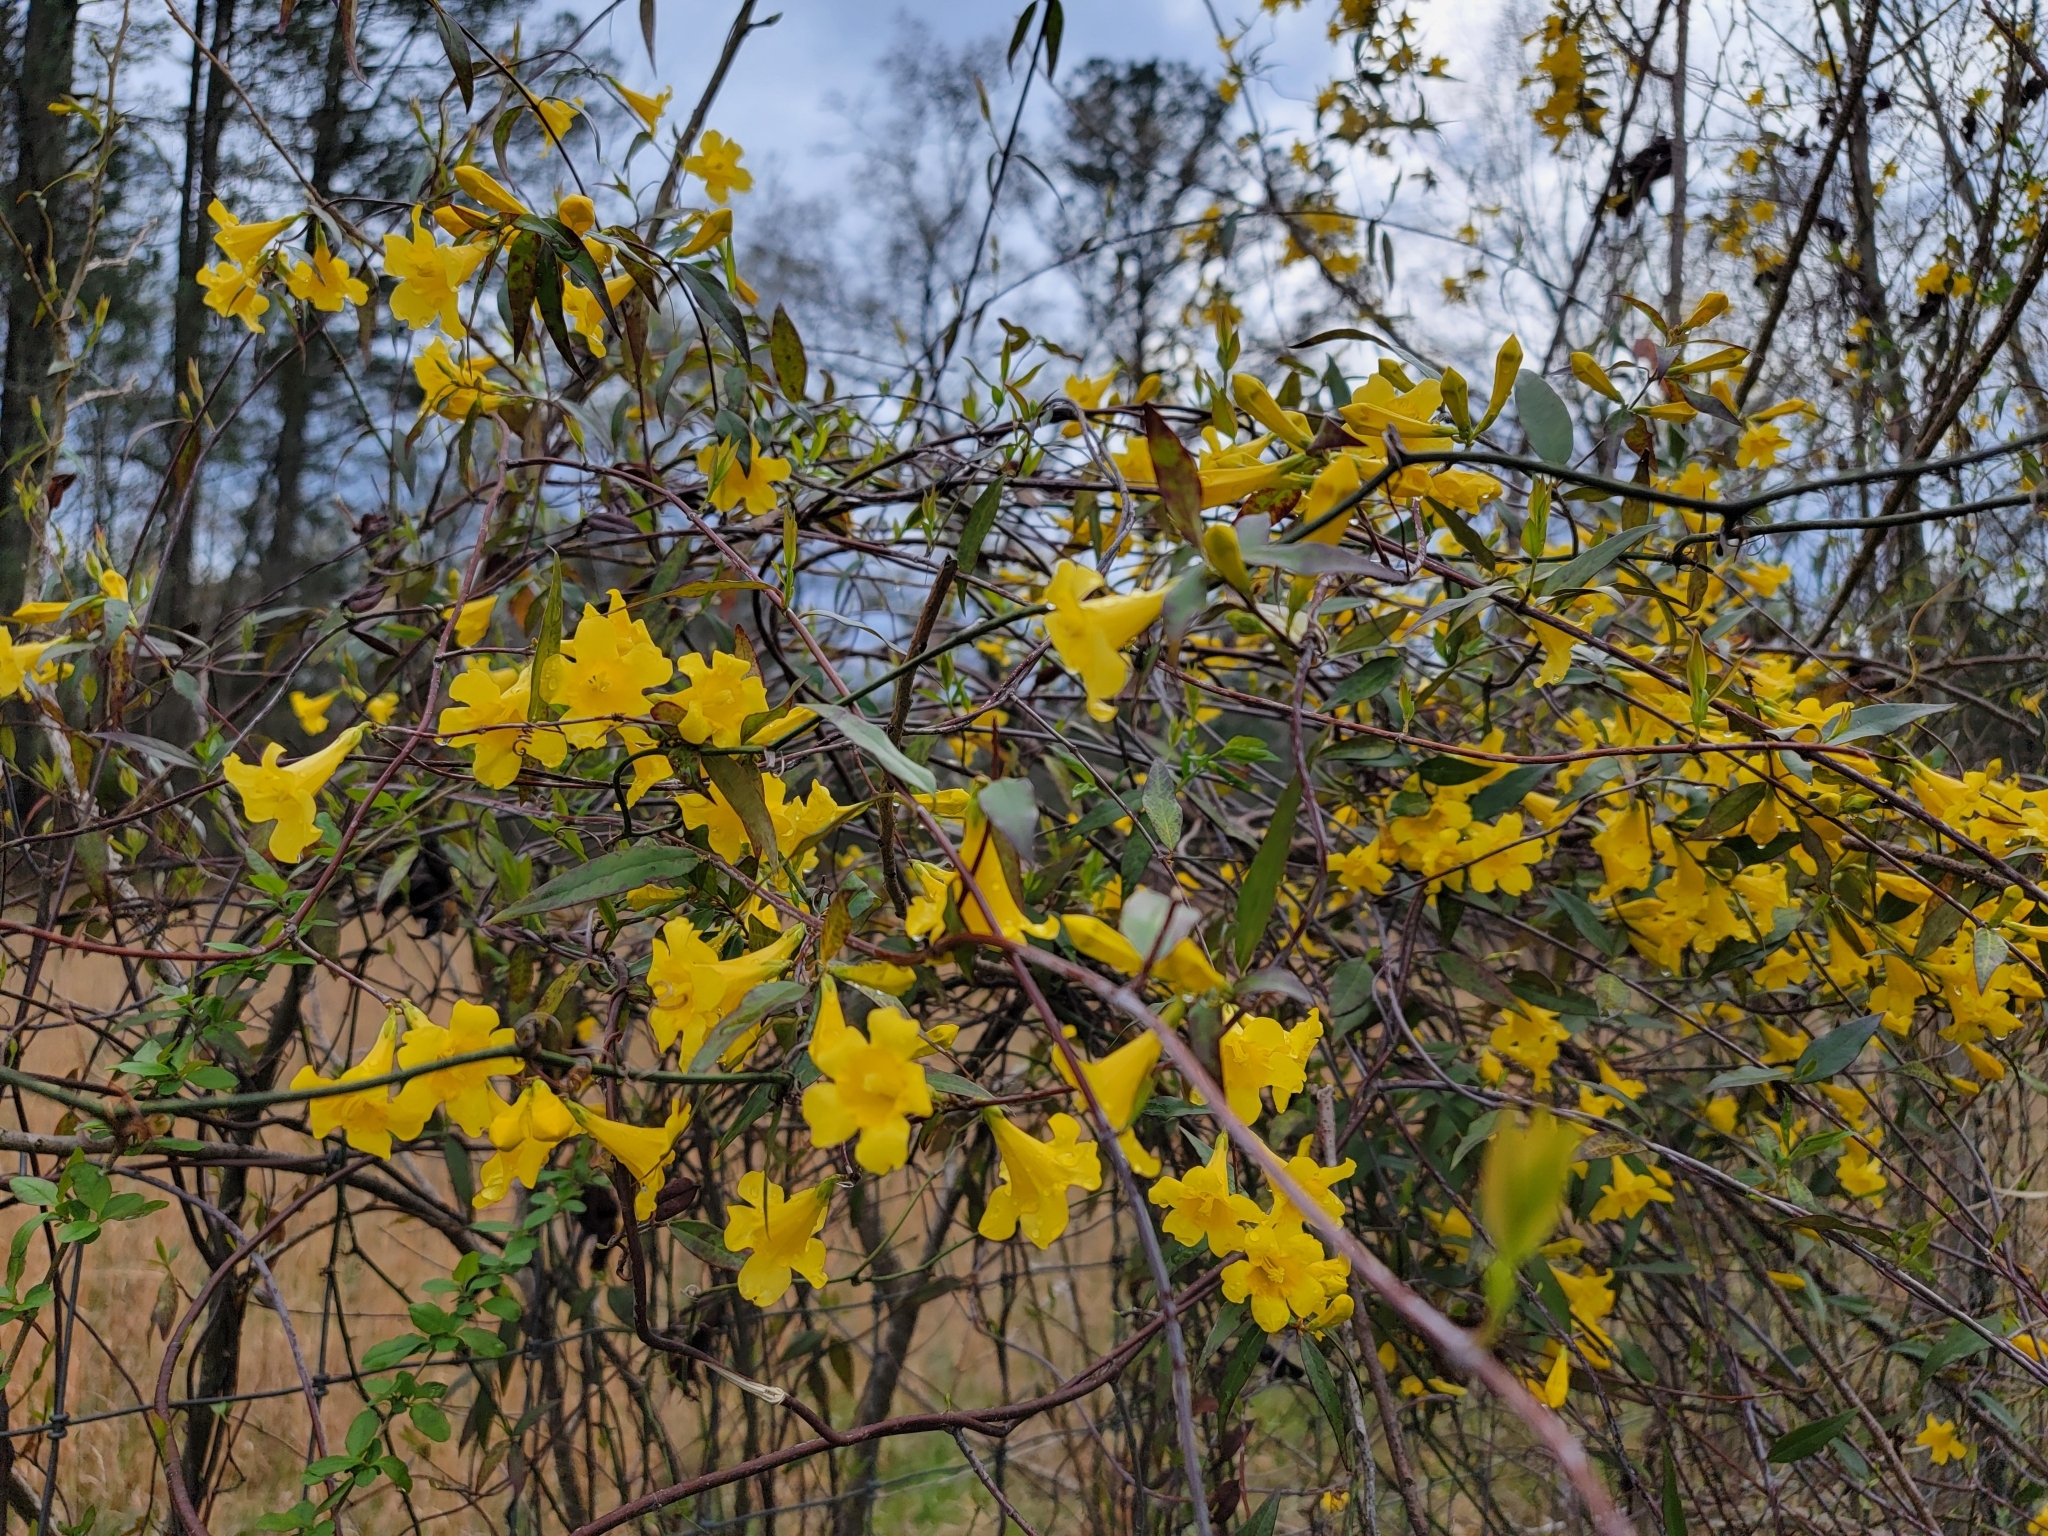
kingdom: Plantae
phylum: Tracheophyta
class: Magnoliopsida
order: Gentianales
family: Gelsemiaceae
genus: Gelsemium
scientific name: Gelsemium sempervirens
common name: Carolina-jasmine
